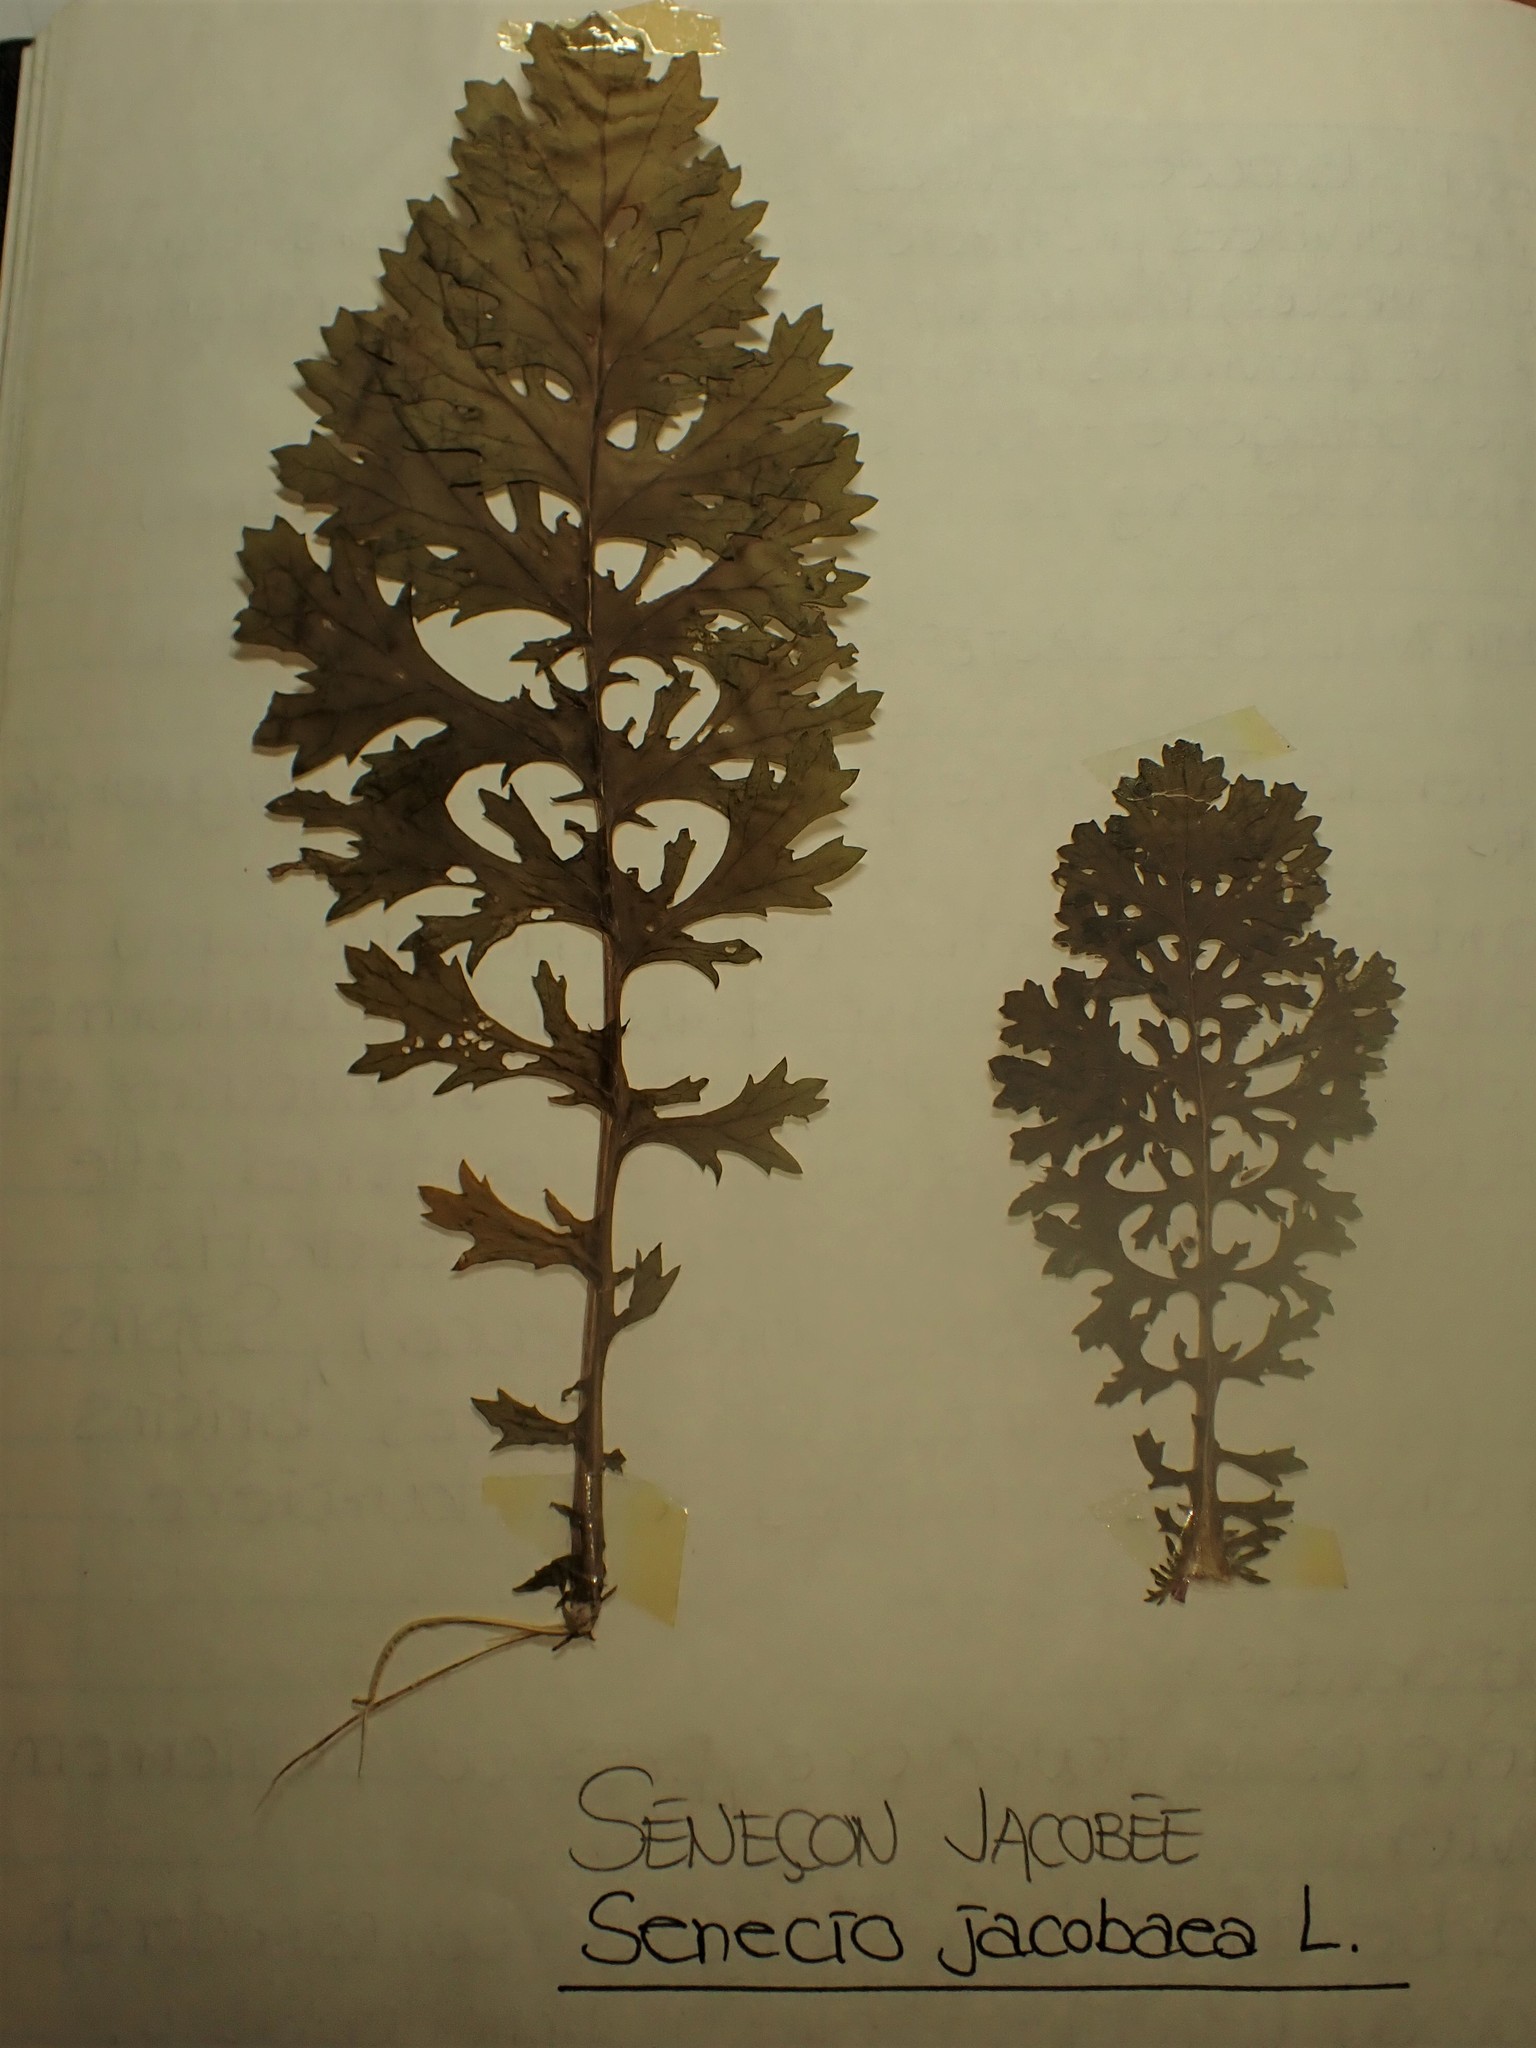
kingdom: Plantae
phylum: Tracheophyta
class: Magnoliopsida
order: Asterales
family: Asteraceae
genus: Jacobaea
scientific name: Jacobaea vulgaris
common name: Stinking willie
